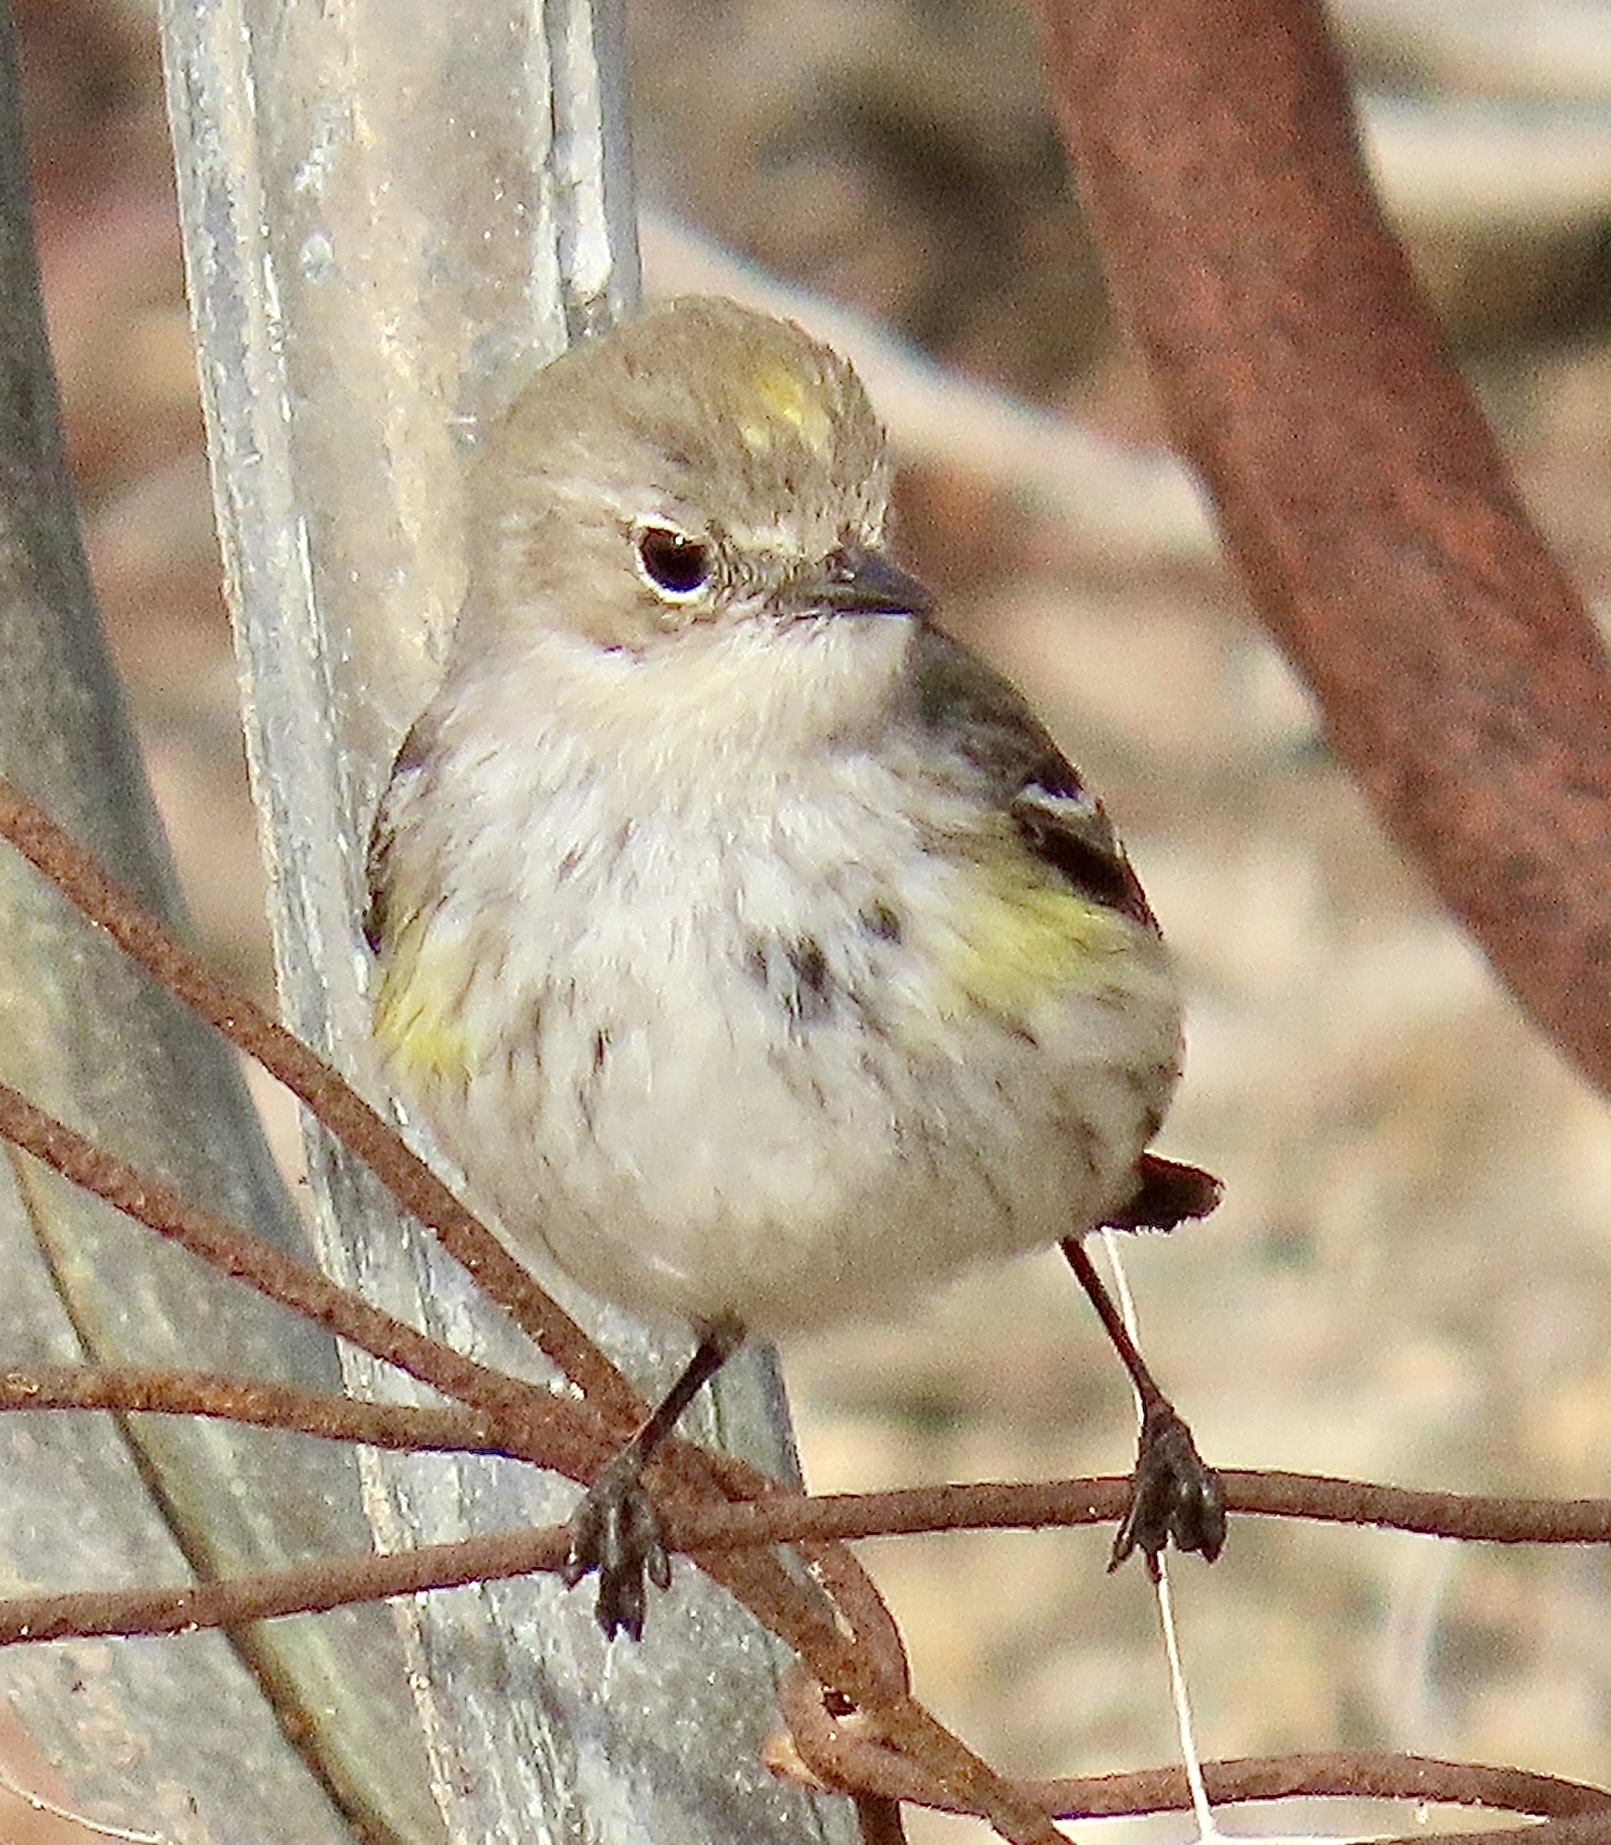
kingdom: Animalia
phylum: Chordata
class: Aves
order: Passeriformes
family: Parulidae
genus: Setophaga
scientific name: Setophaga coronata
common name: Myrtle warbler
